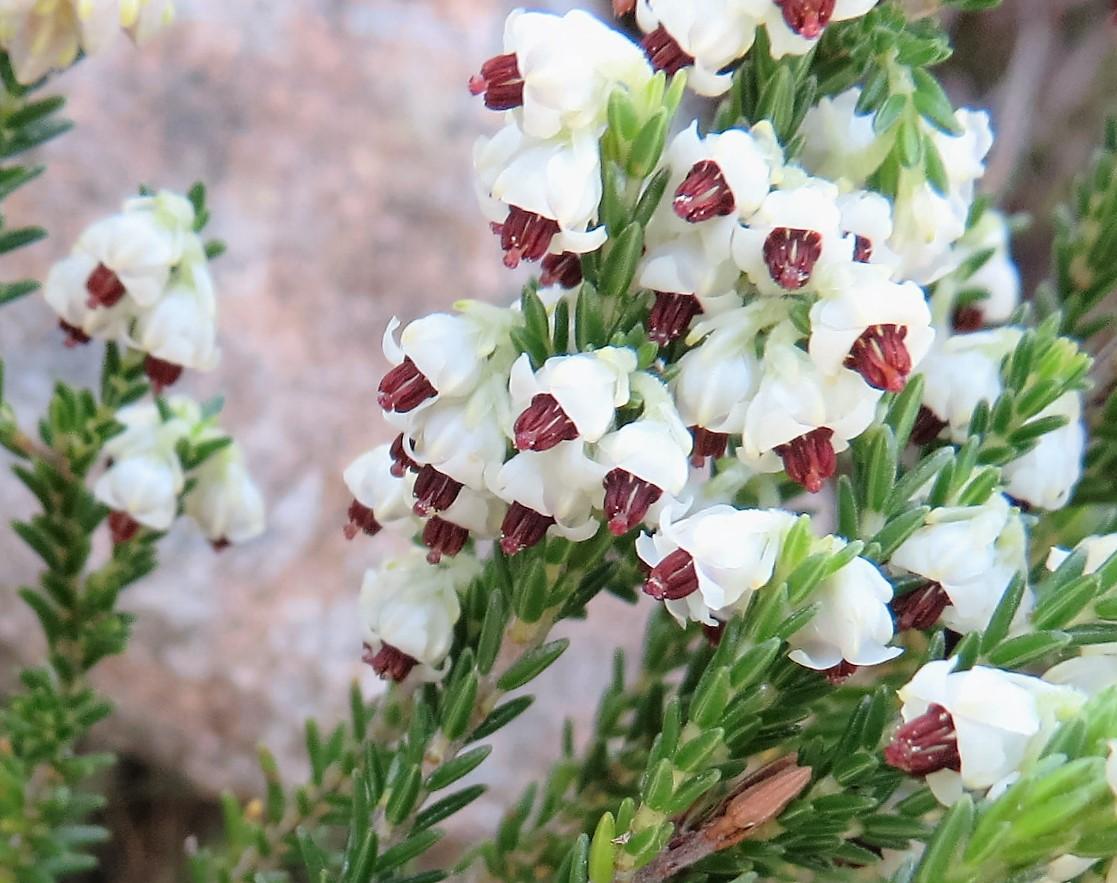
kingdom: Plantae
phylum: Tracheophyta
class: Magnoliopsida
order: Ericales
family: Ericaceae
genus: Erica
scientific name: Erica calycina
